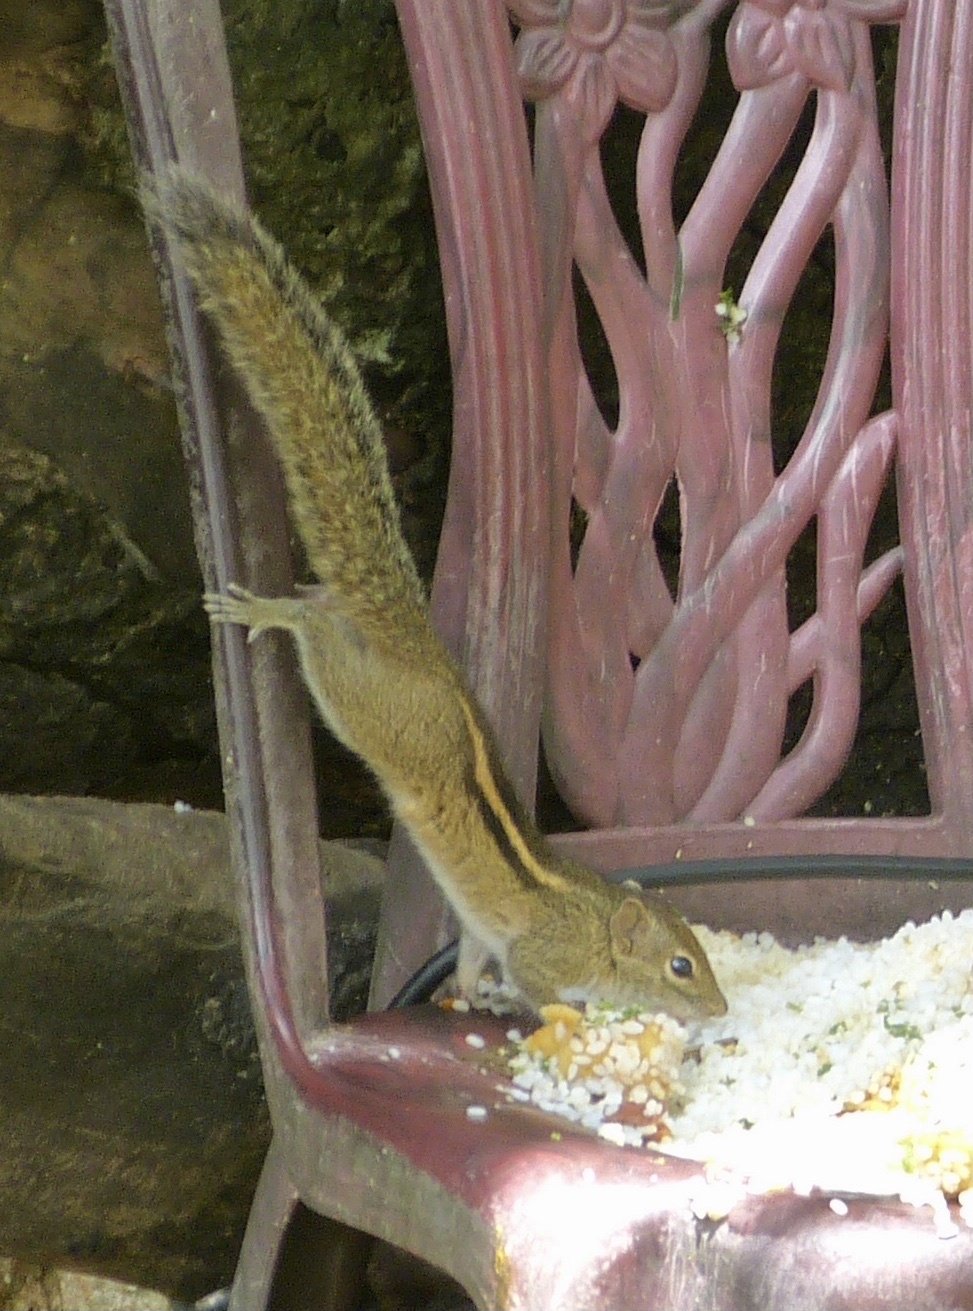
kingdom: Animalia
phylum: Chordata
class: Mammalia
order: Rodentia
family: Sciuridae
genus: Funambulus
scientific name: Funambulus palmarum
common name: Indian palm squirrel
